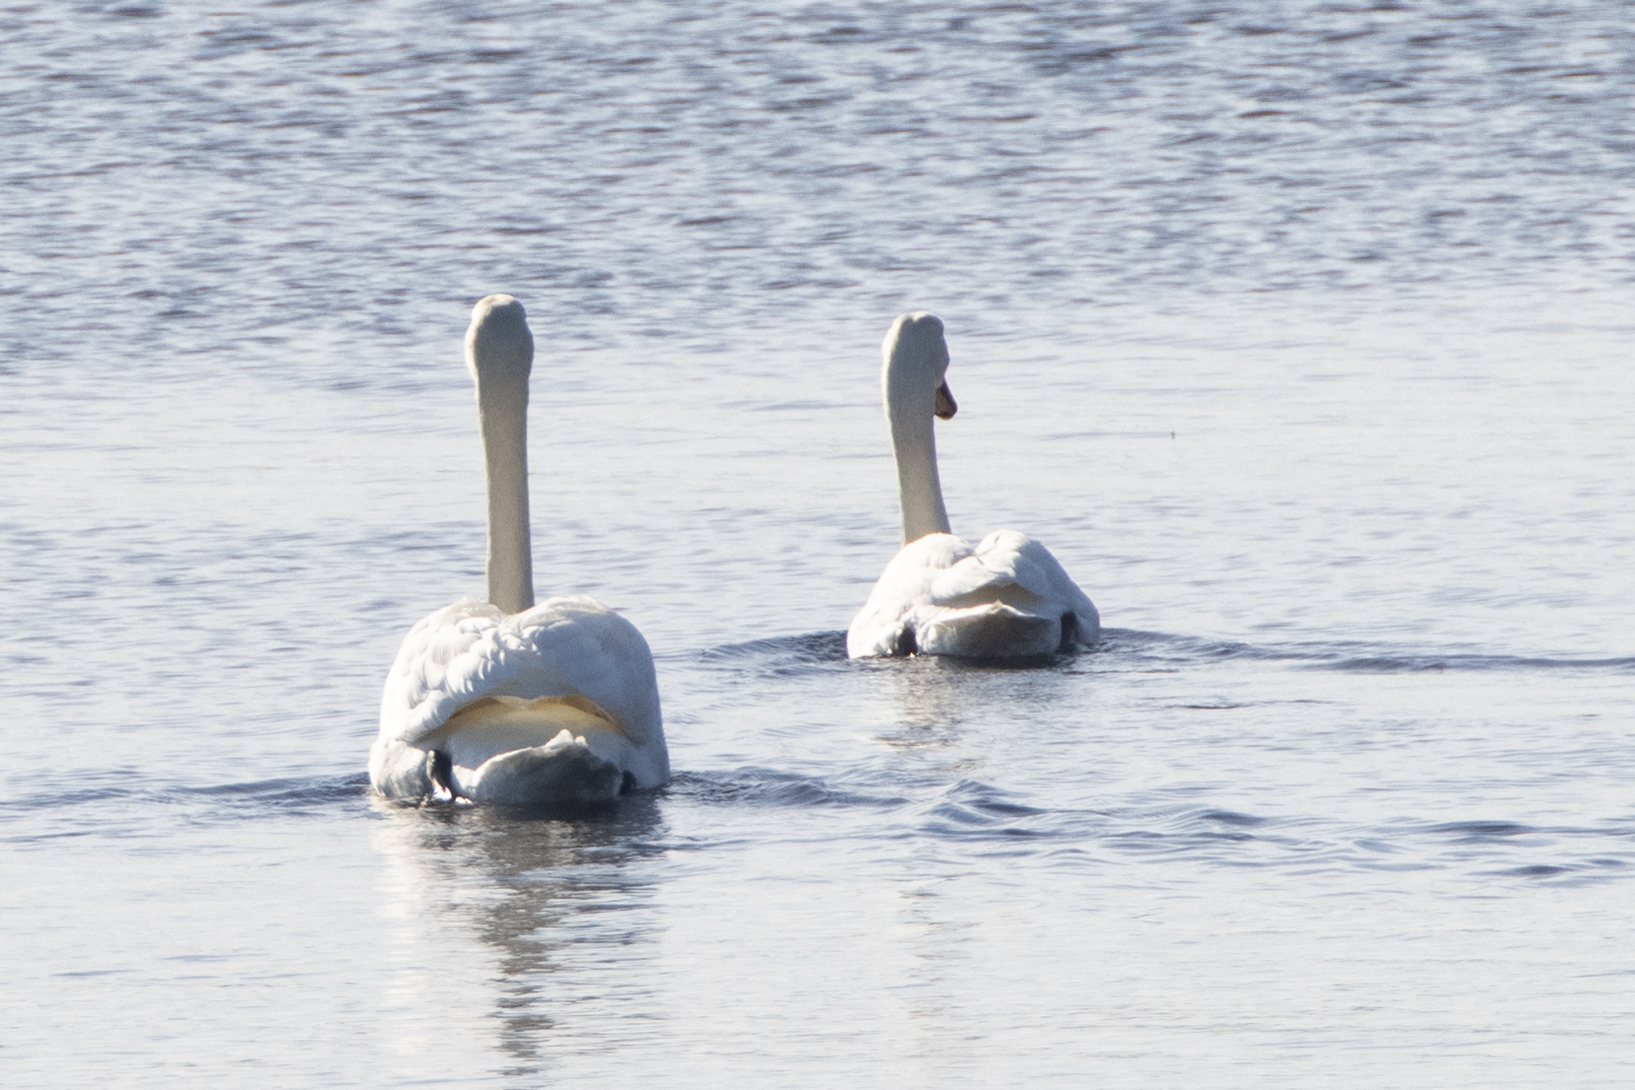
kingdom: Animalia
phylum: Chordata
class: Aves
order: Anseriformes
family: Anatidae
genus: Cygnus
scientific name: Cygnus olor
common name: Mute swan
